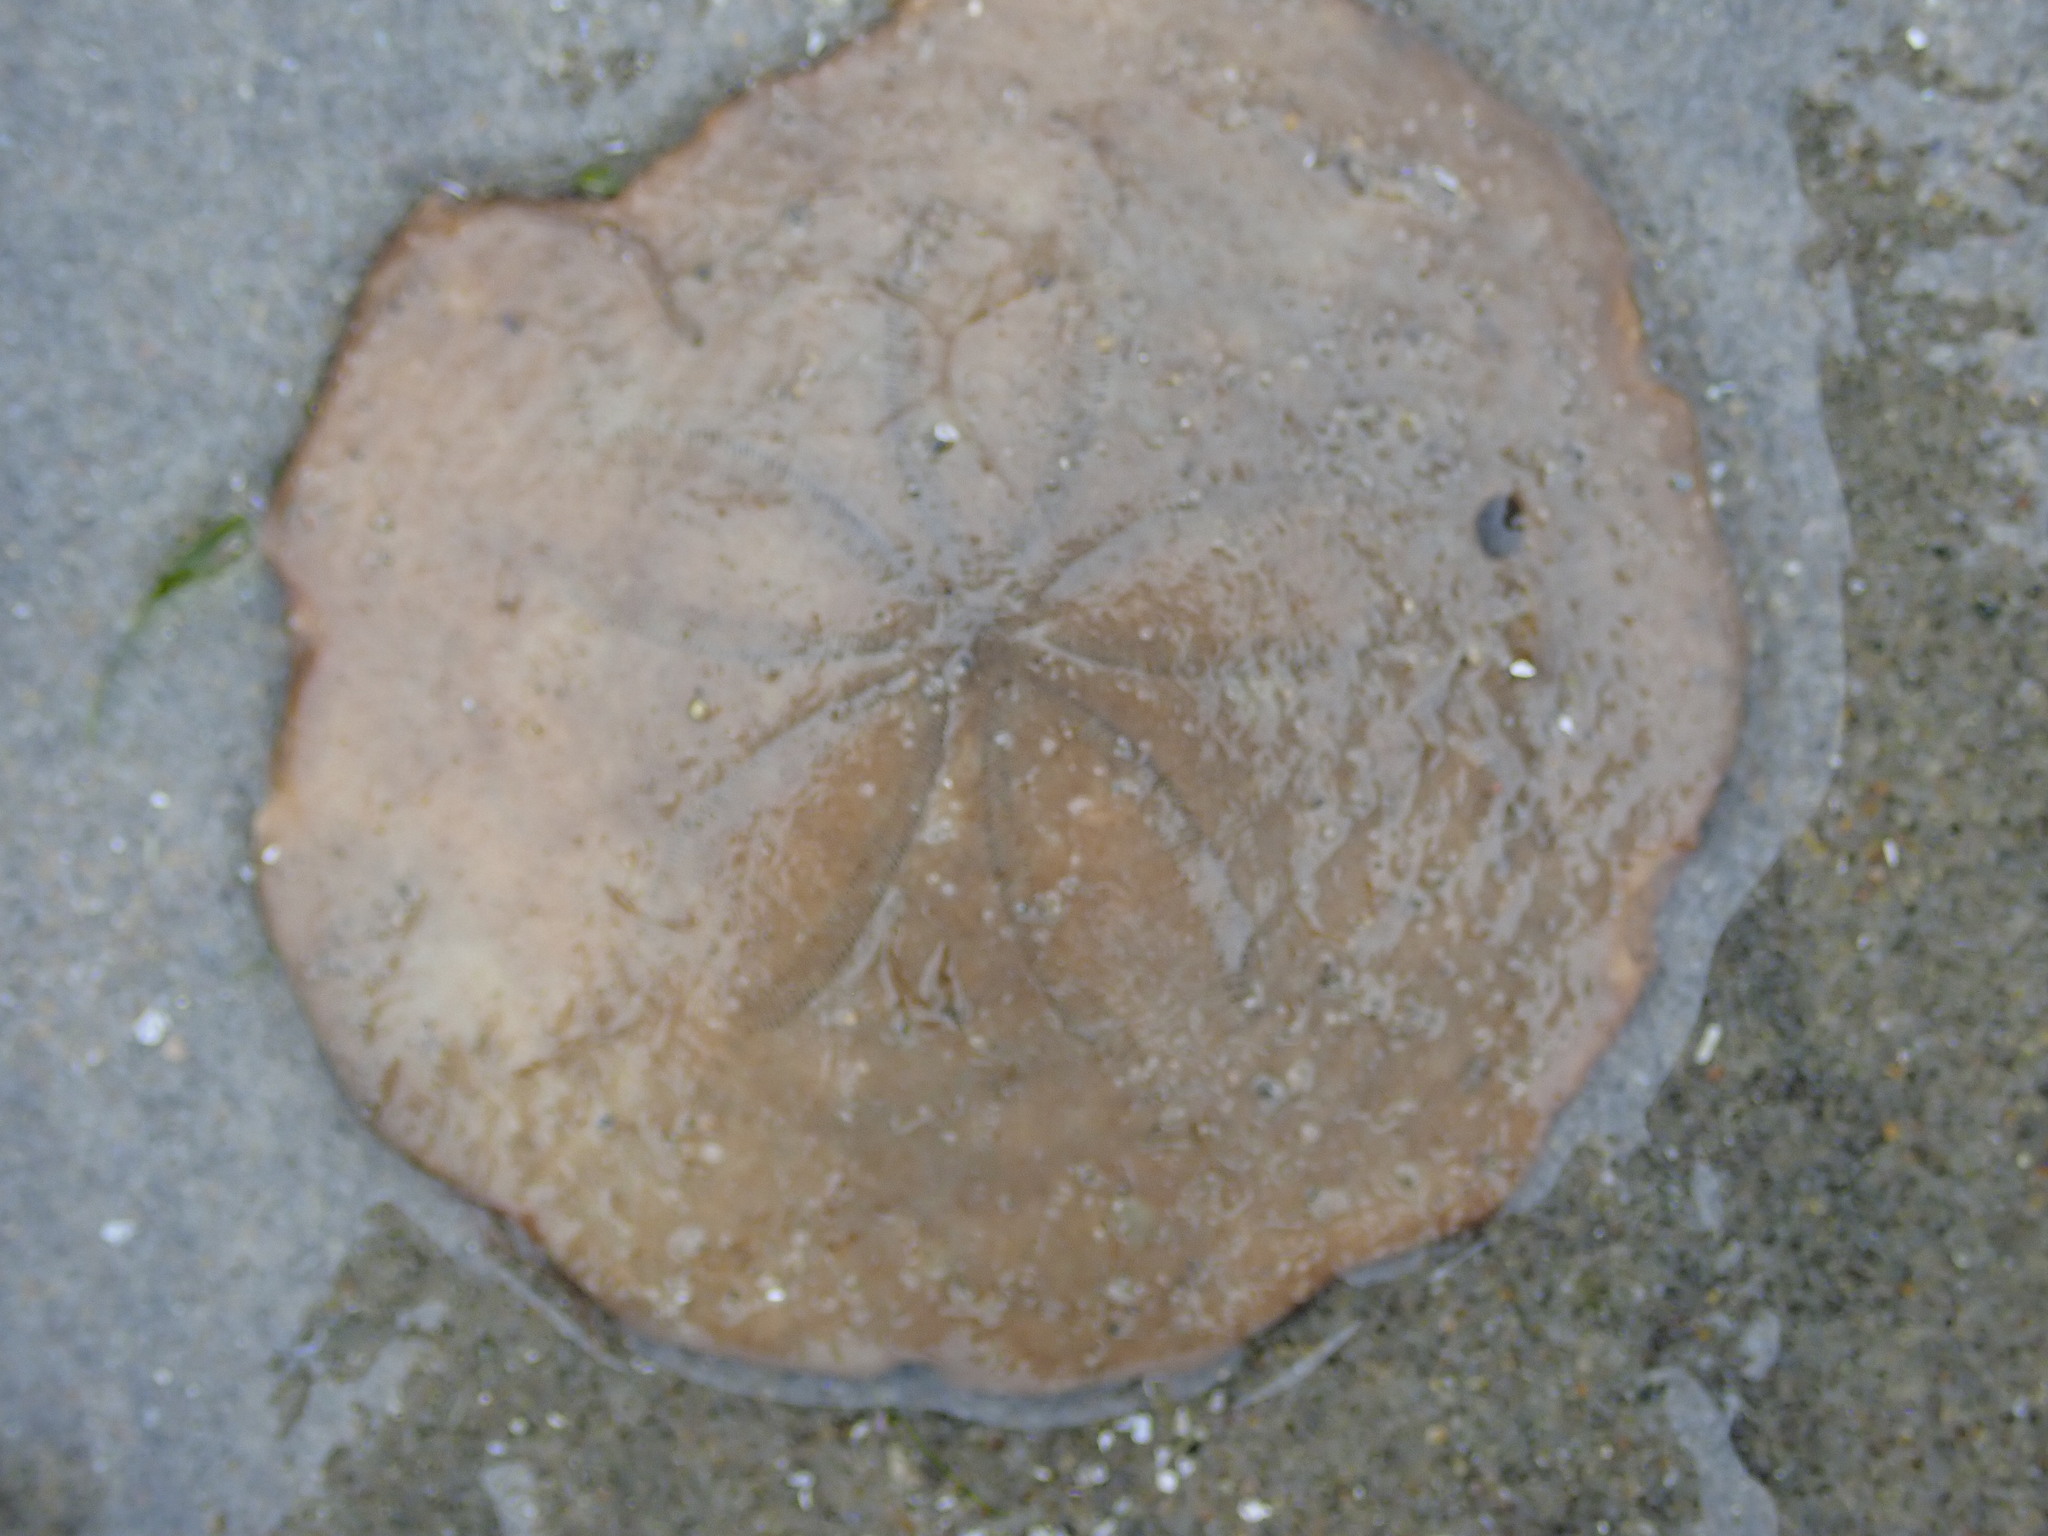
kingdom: Animalia
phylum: Echinodermata
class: Echinoidea
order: Echinolampadacea
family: Echinarachniidae
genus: Echinarachnius
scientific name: Echinarachnius parma
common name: Common sand dollar
